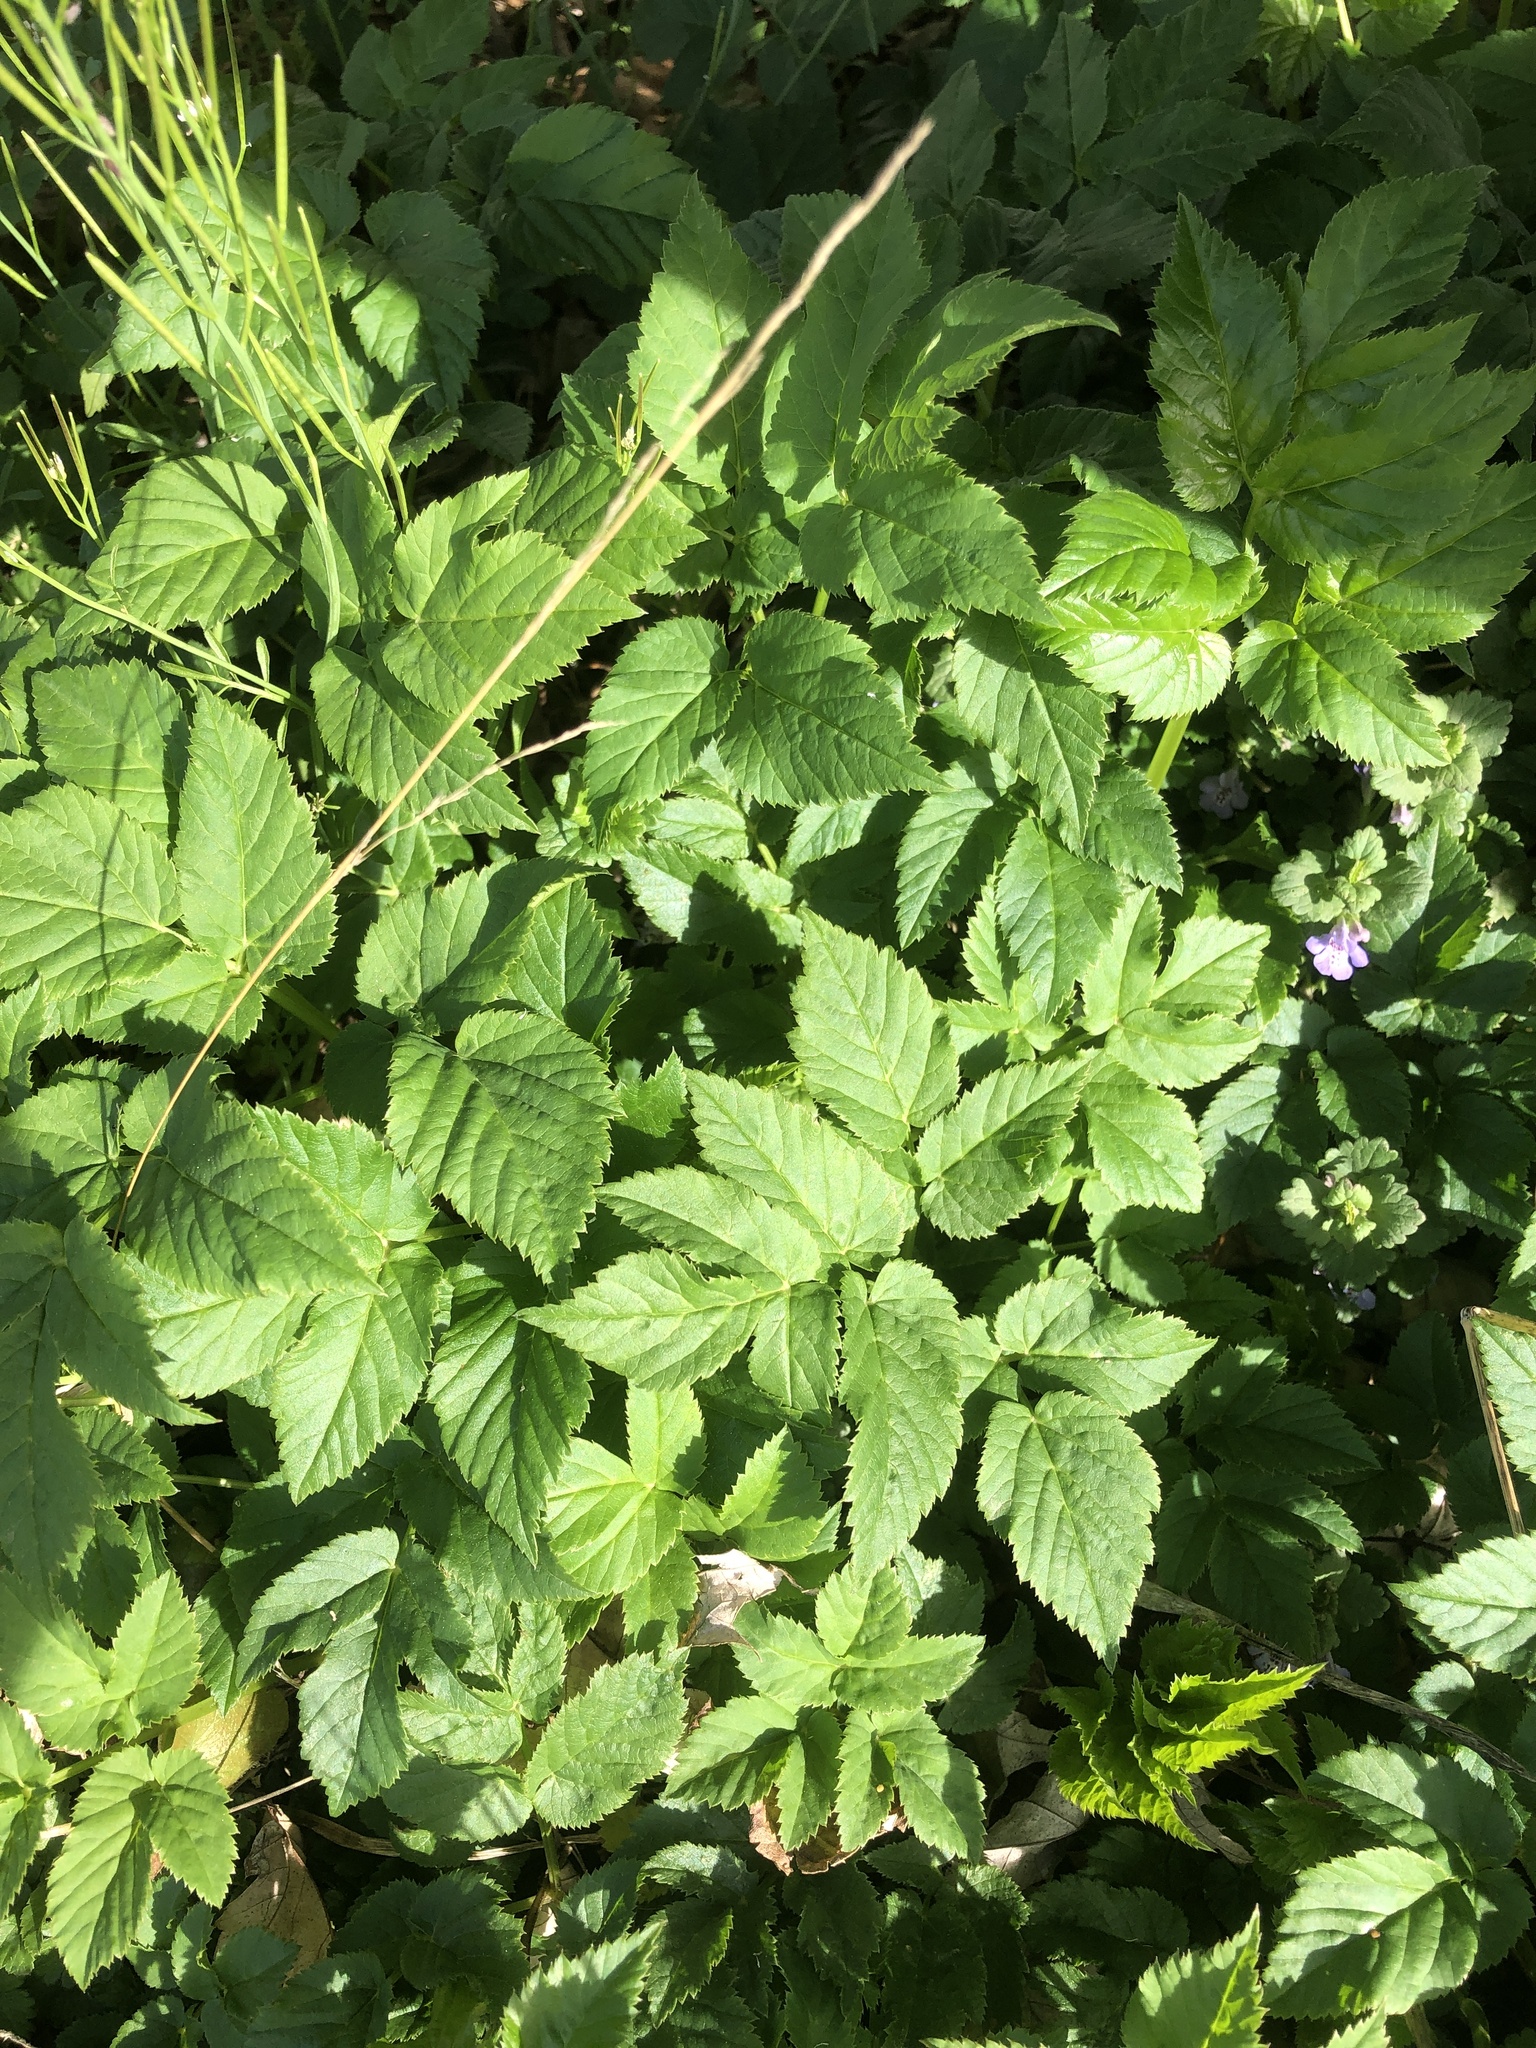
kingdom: Plantae
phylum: Tracheophyta
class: Magnoliopsida
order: Apiales
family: Apiaceae
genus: Aegopodium
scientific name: Aegopodium podagraria
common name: Ground-elder
